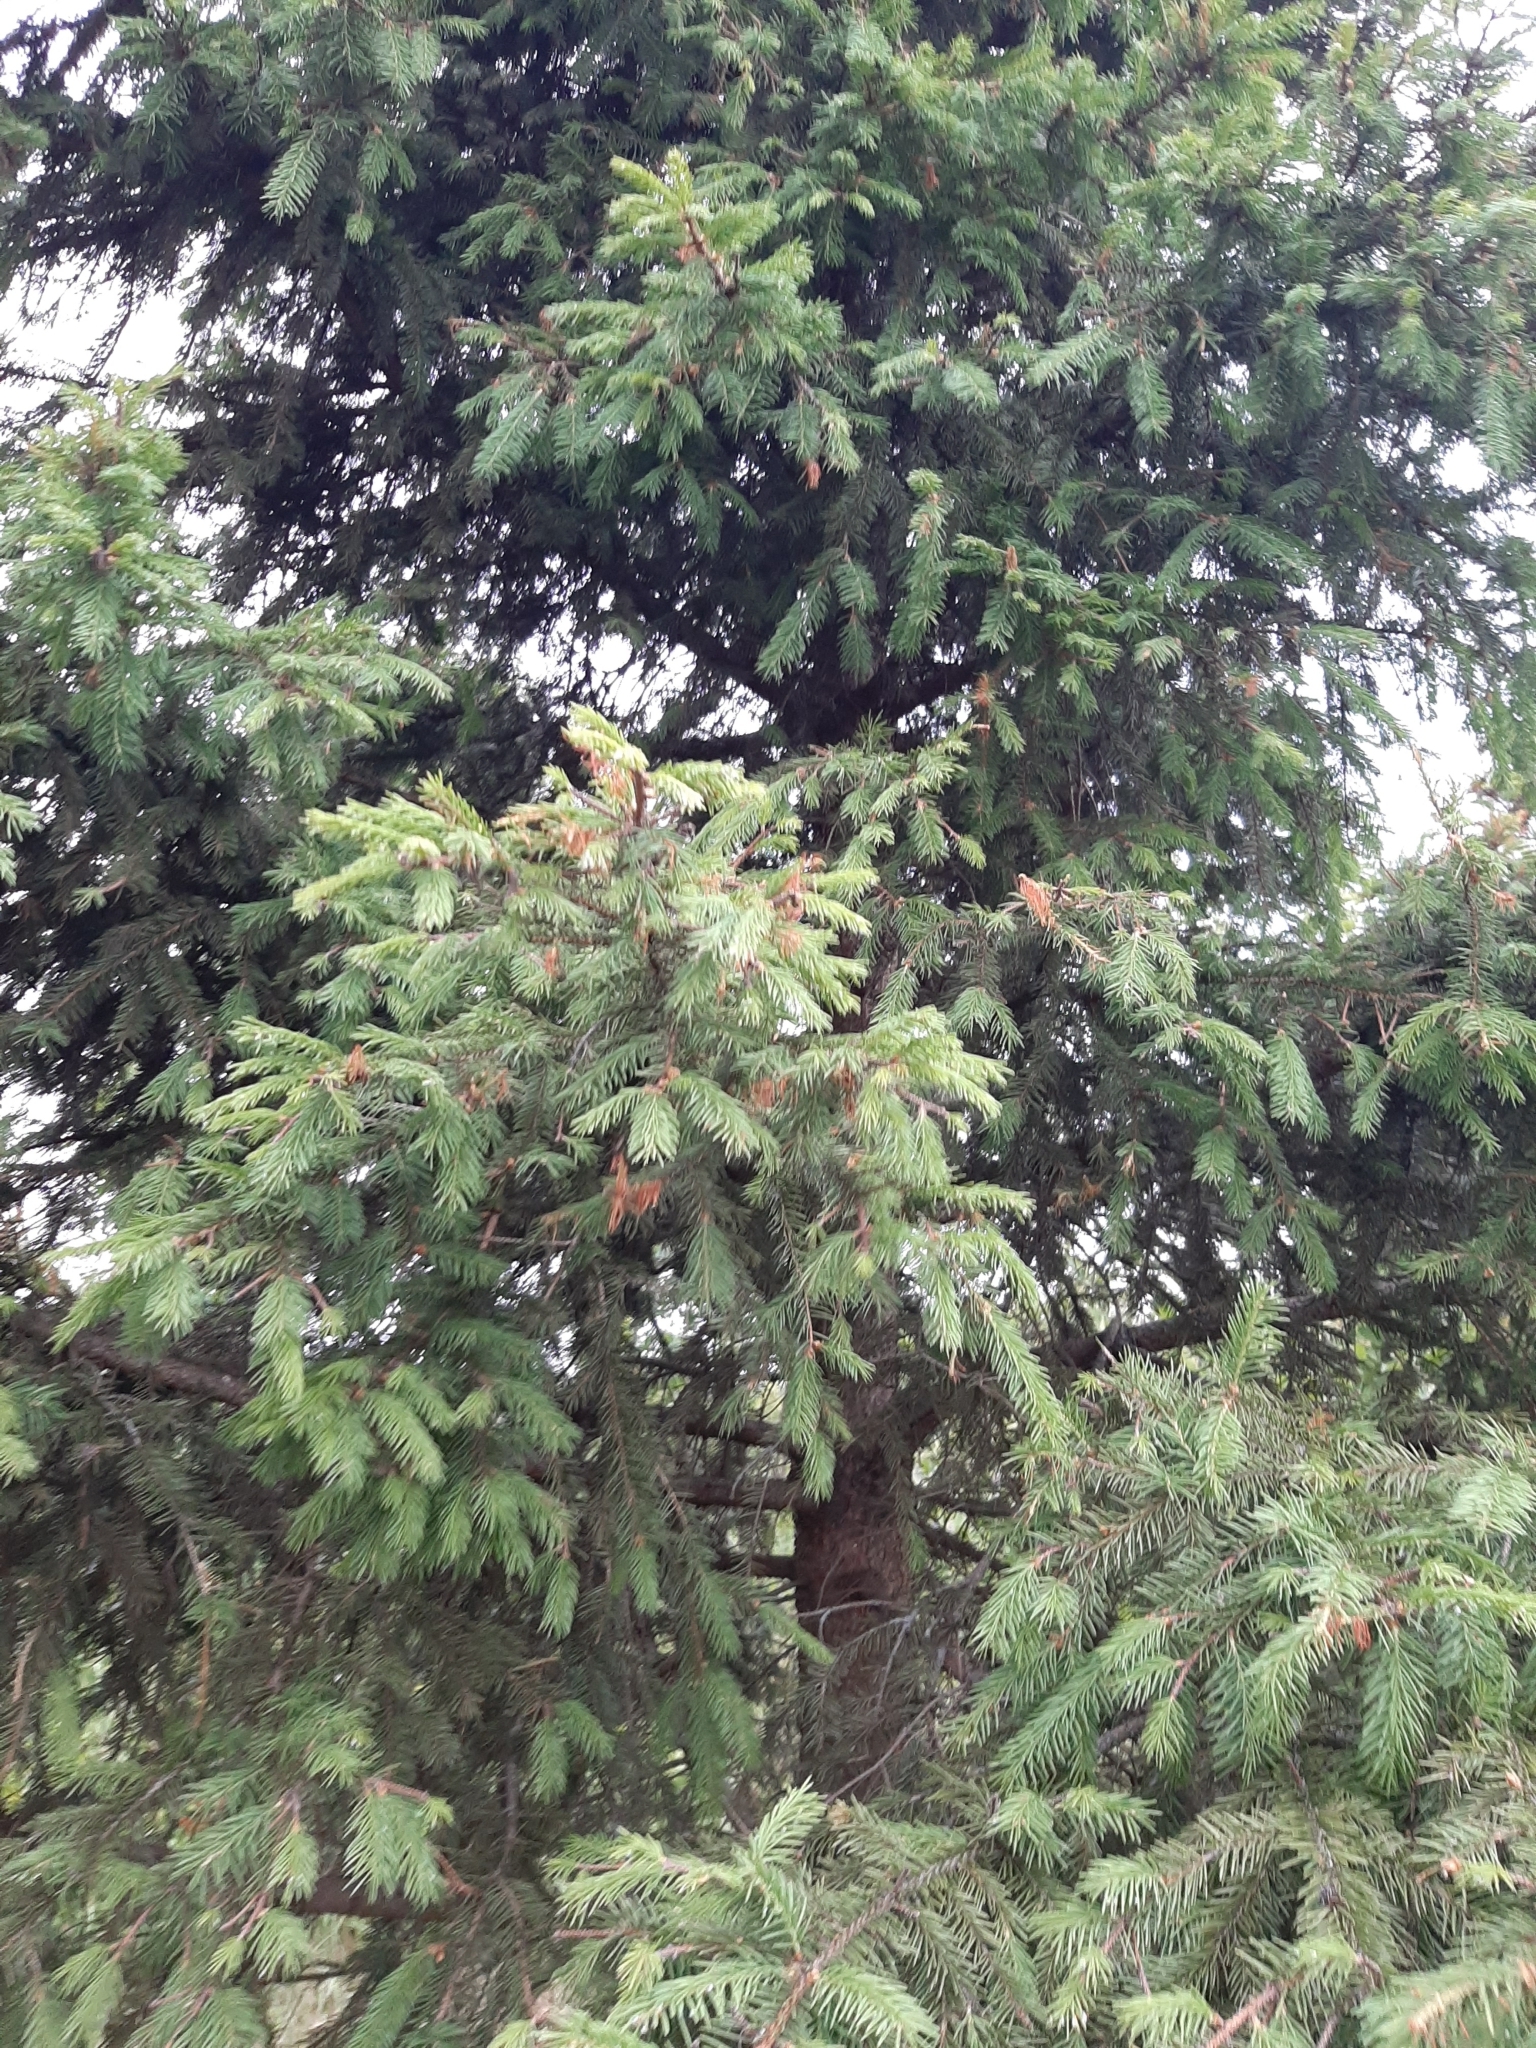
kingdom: Plantae
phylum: Tracheophyta
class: Pinopsida
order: Pinales
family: Pinaceae
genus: Picea
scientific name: Picea abies
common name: Norway spruce
